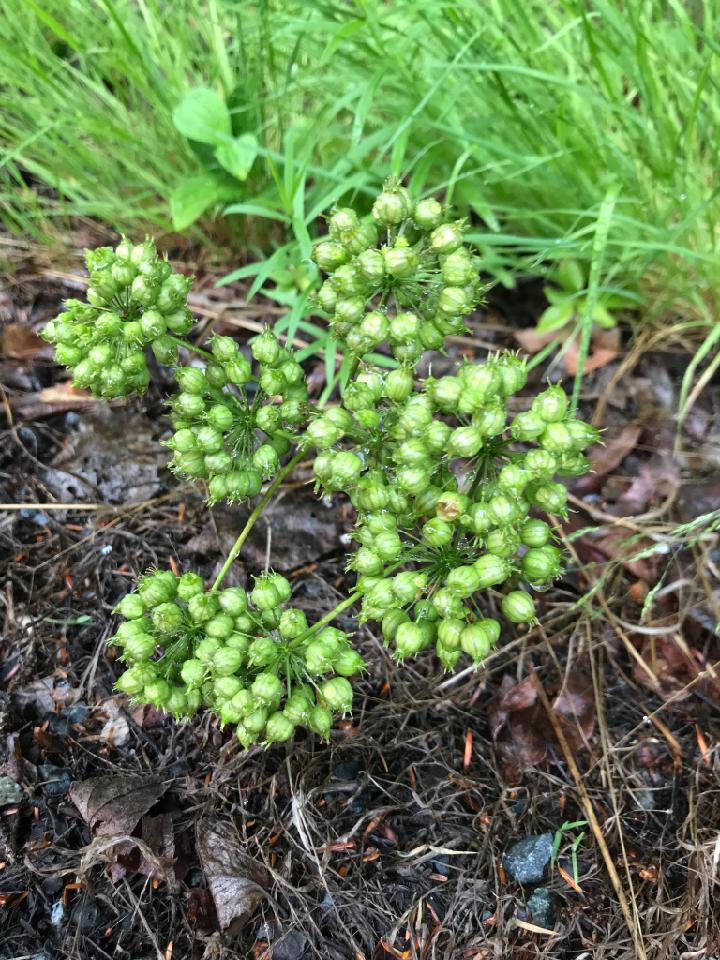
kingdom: Plantae
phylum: Tracheophyta
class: Magnoliopsida
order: Apiales
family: Araliaceae
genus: Aralia
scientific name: Aralia hispida
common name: Bristly sarsaparilla
